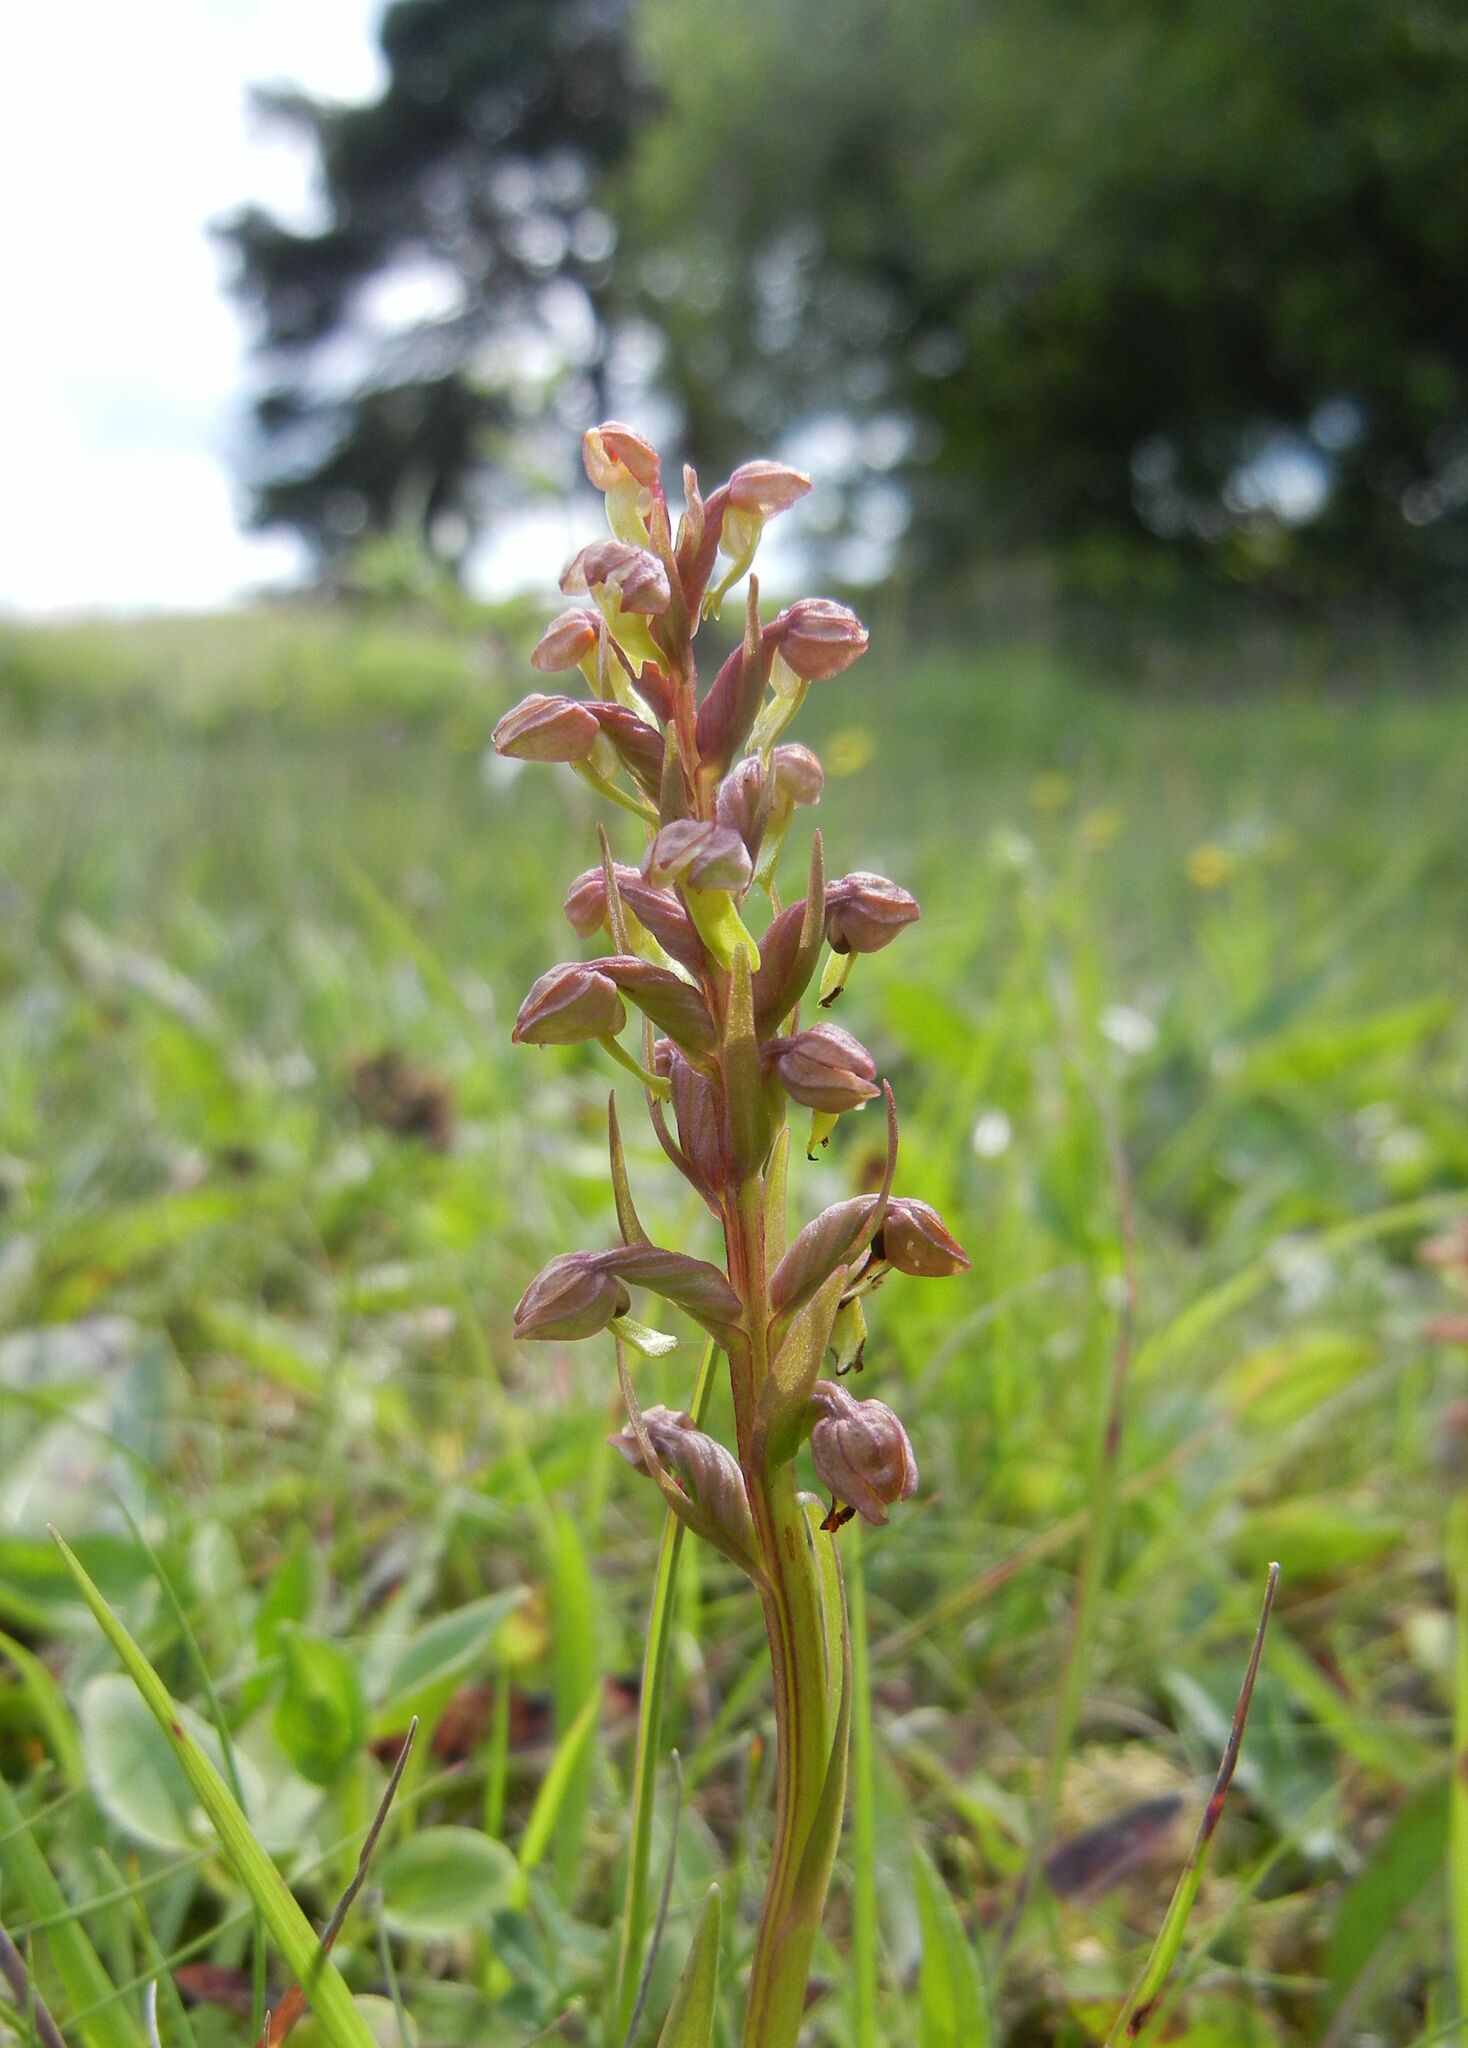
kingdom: Plantae
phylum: Tracheophyta
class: Liliopsida
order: Asparagales
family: Orchidaceae
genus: Dactylorhiza
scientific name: Dactylorhiza viridis
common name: Longbract frog orchid
